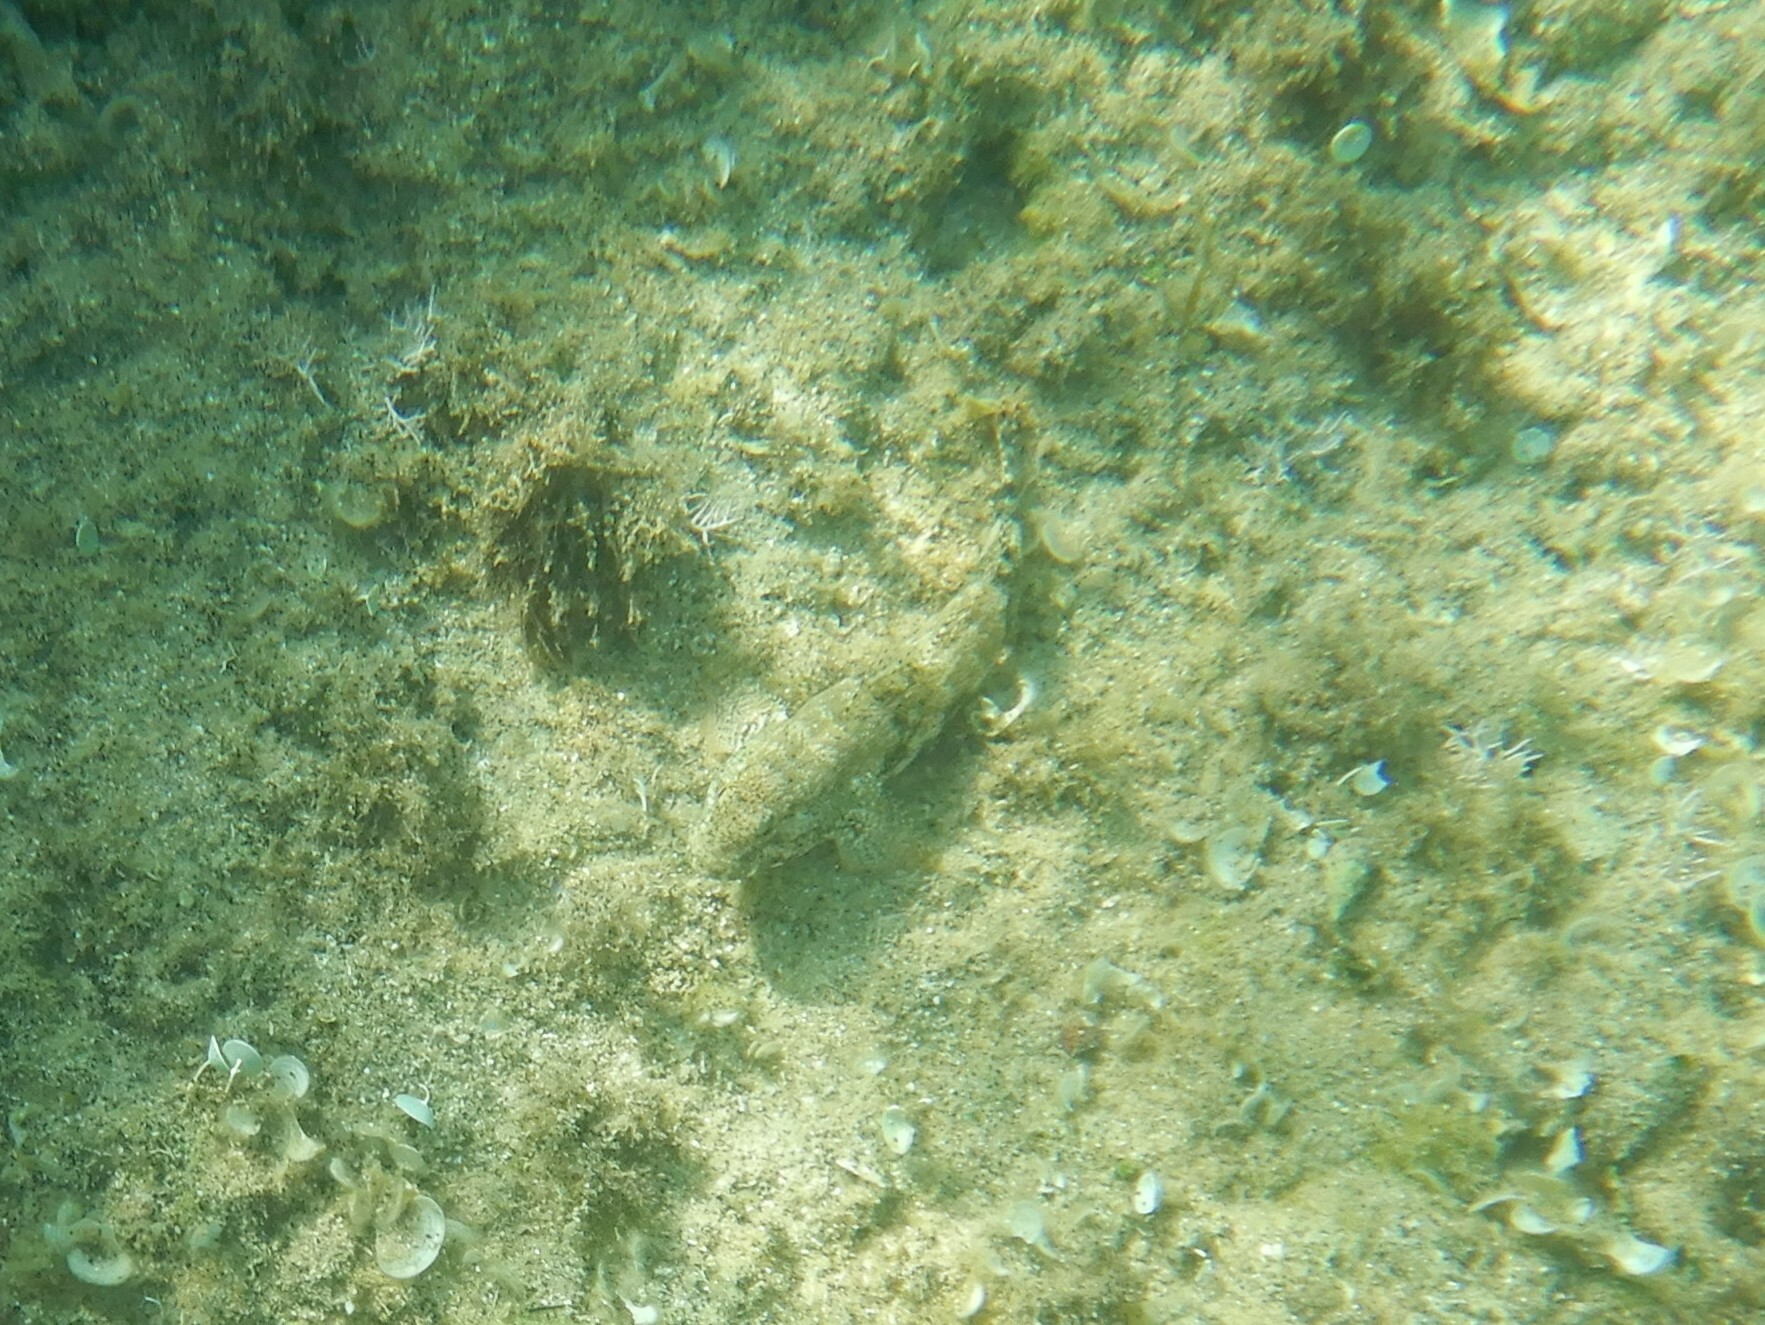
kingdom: Animalia
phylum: Chordata
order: Perciformes
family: Gobiidae
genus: Gobius
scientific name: Gobius cobitis
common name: Giant goby
